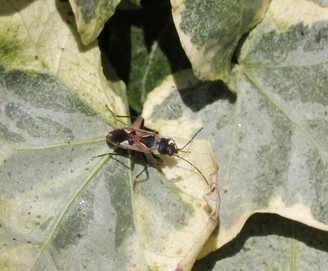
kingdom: Animalia
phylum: Arthropoda
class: Insecta
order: Hemiptera
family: Rhyparochromidae
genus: Rhyparochromus
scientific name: Rhyparochromus vulgaris
